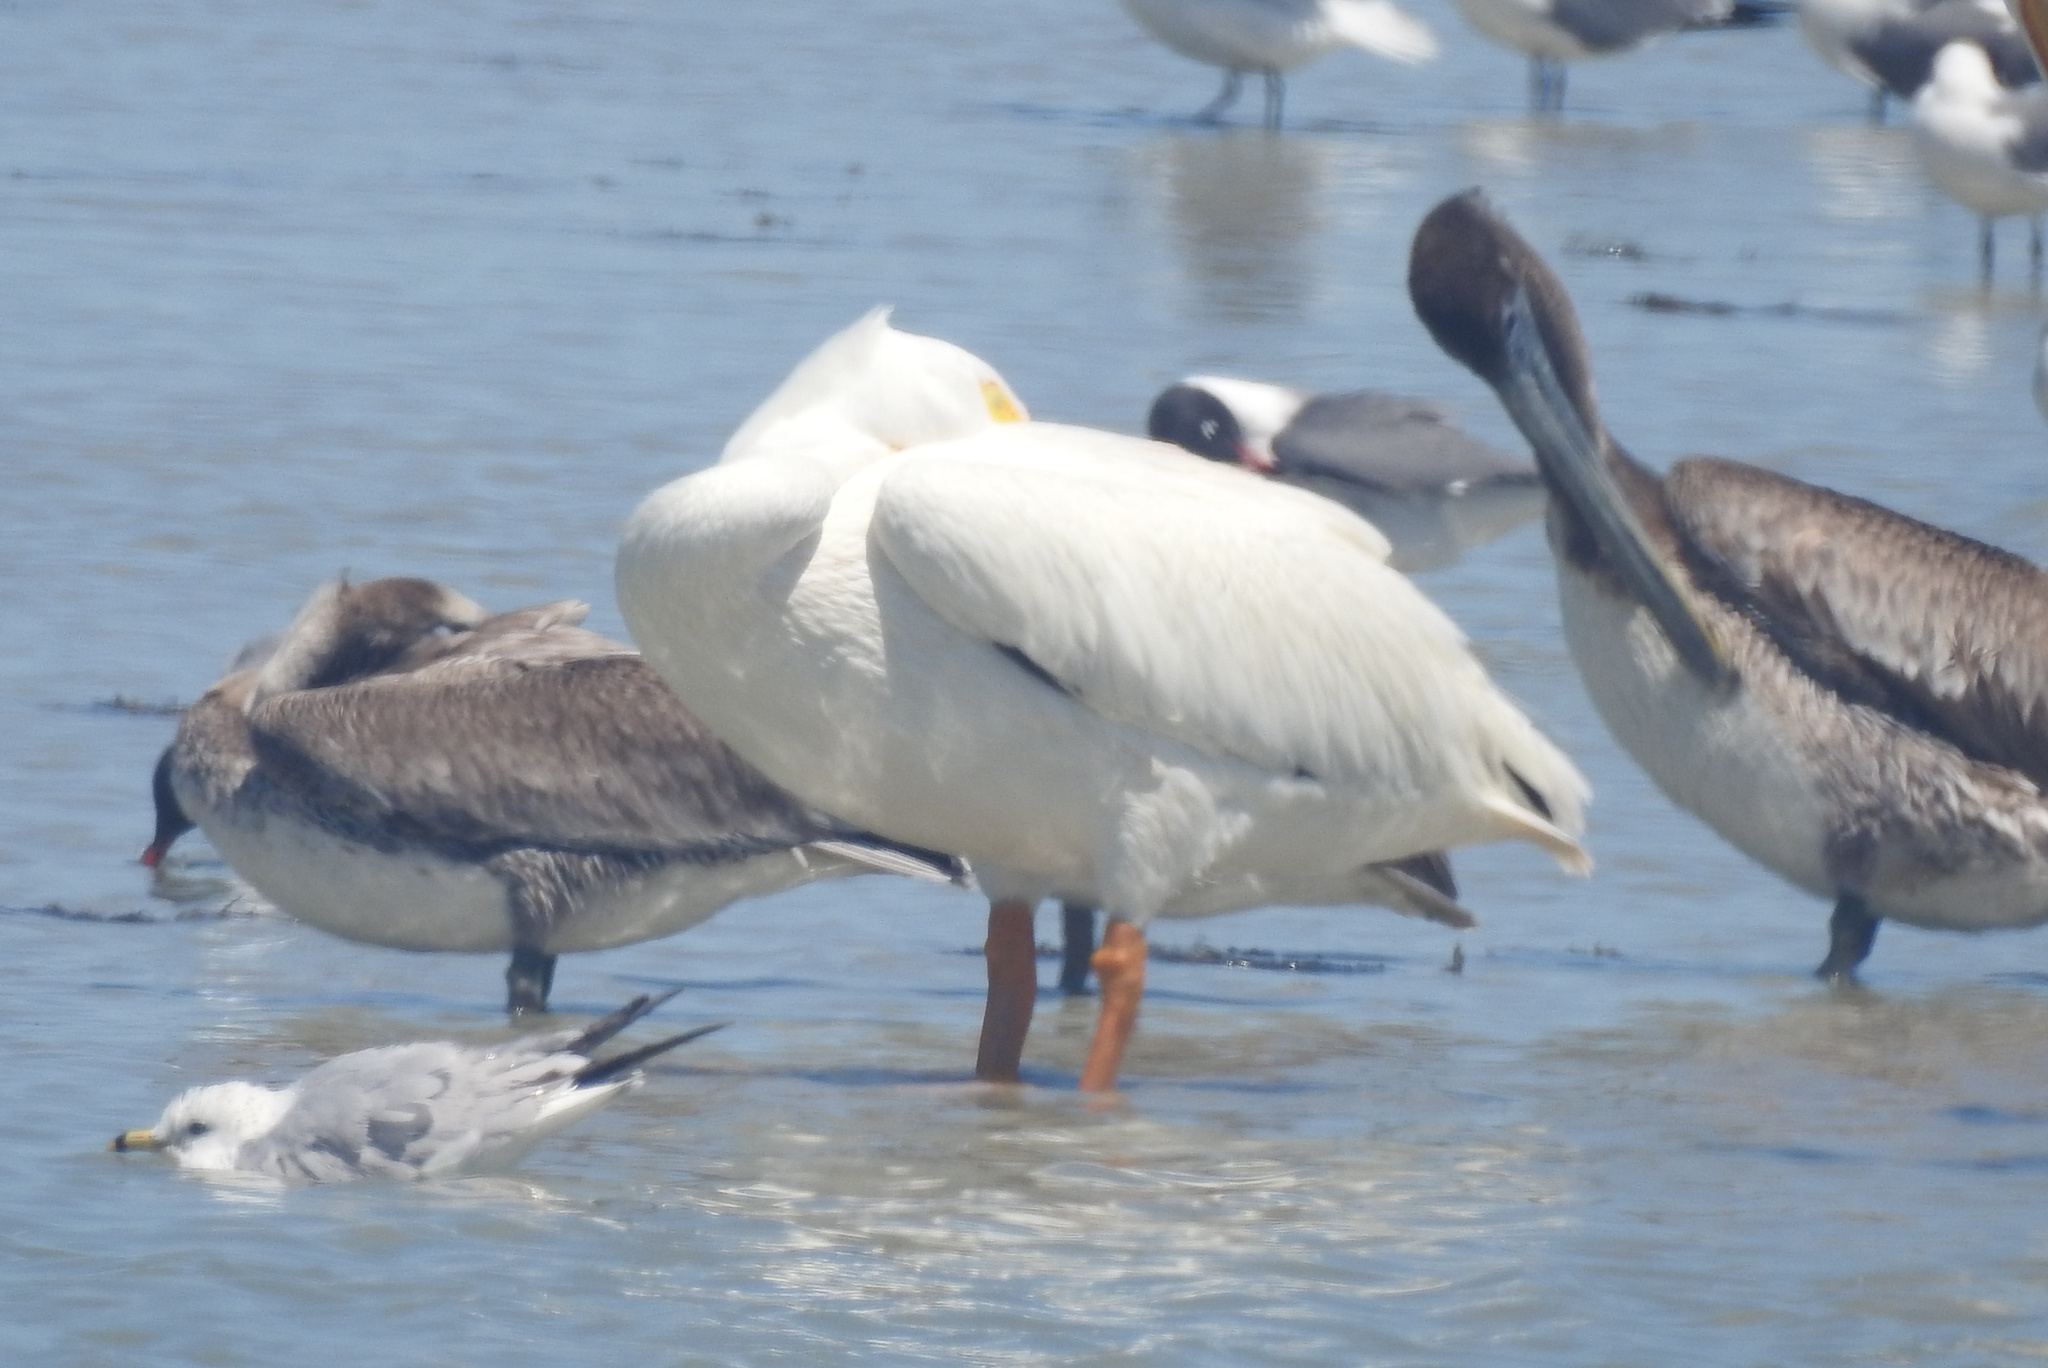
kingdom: Animalia
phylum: Chordata
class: Aves
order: Pelecaniformes
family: Pelecanidae
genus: Pelecanus
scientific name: Pelecanus occidentalis
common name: Brown pelican
